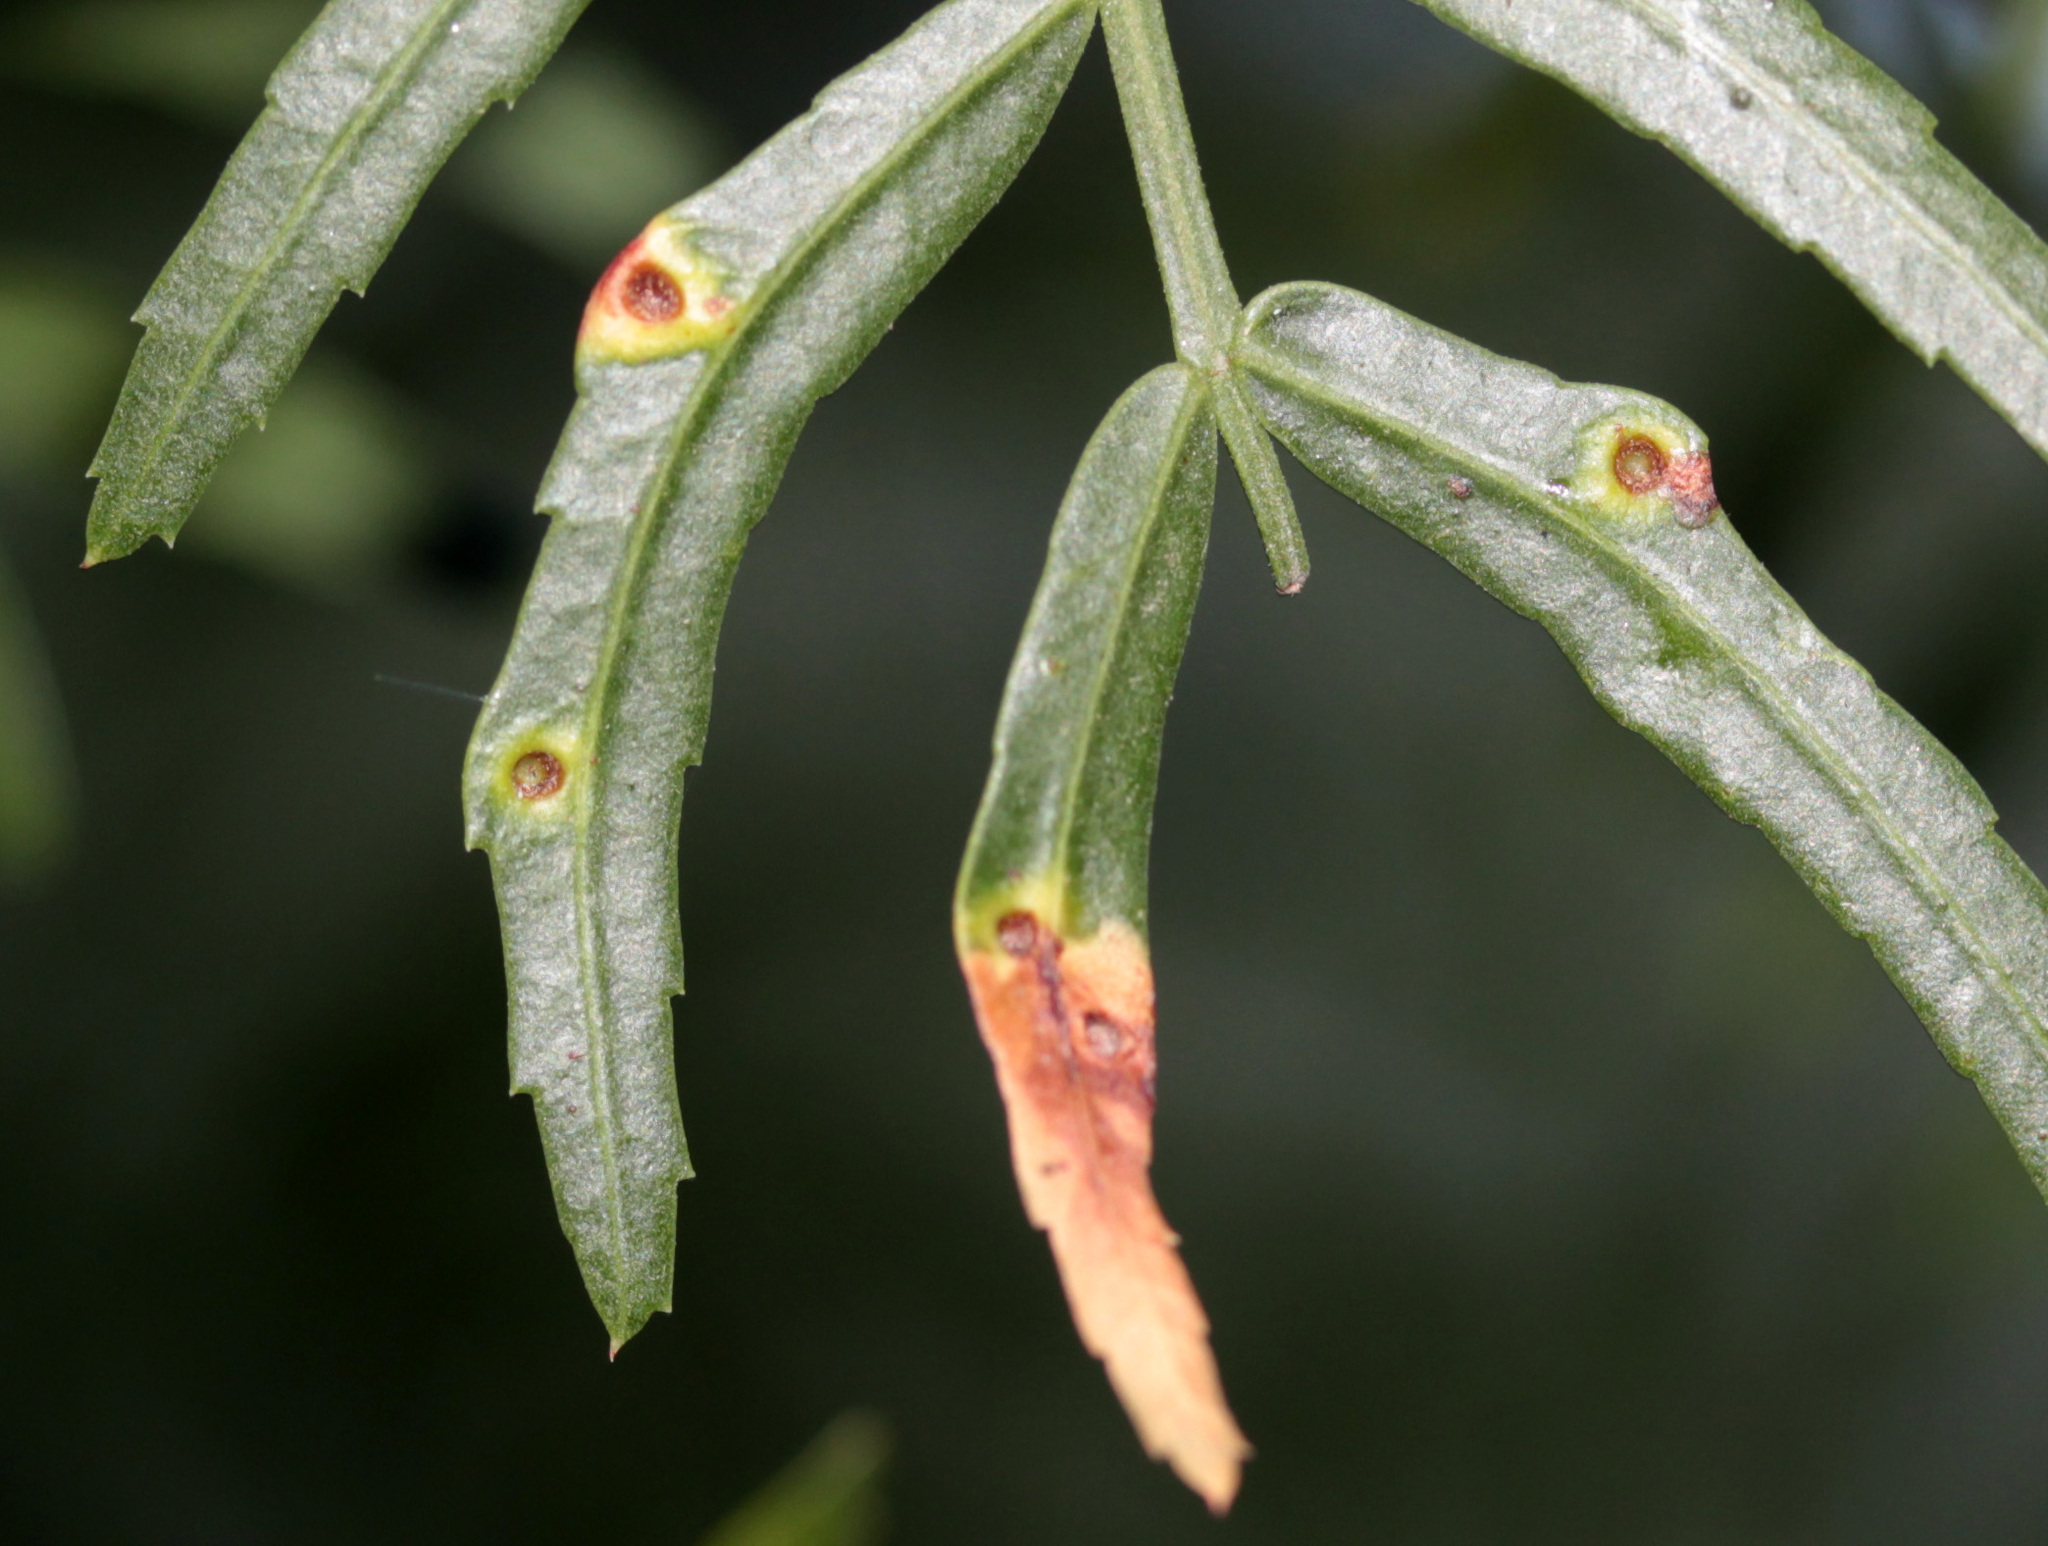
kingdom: Animalia
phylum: Arthropoda
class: Insecta
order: Hemiptera
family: Calophyidae
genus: Calophya
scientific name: Calophya schini
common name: Pepper tree psyllid
